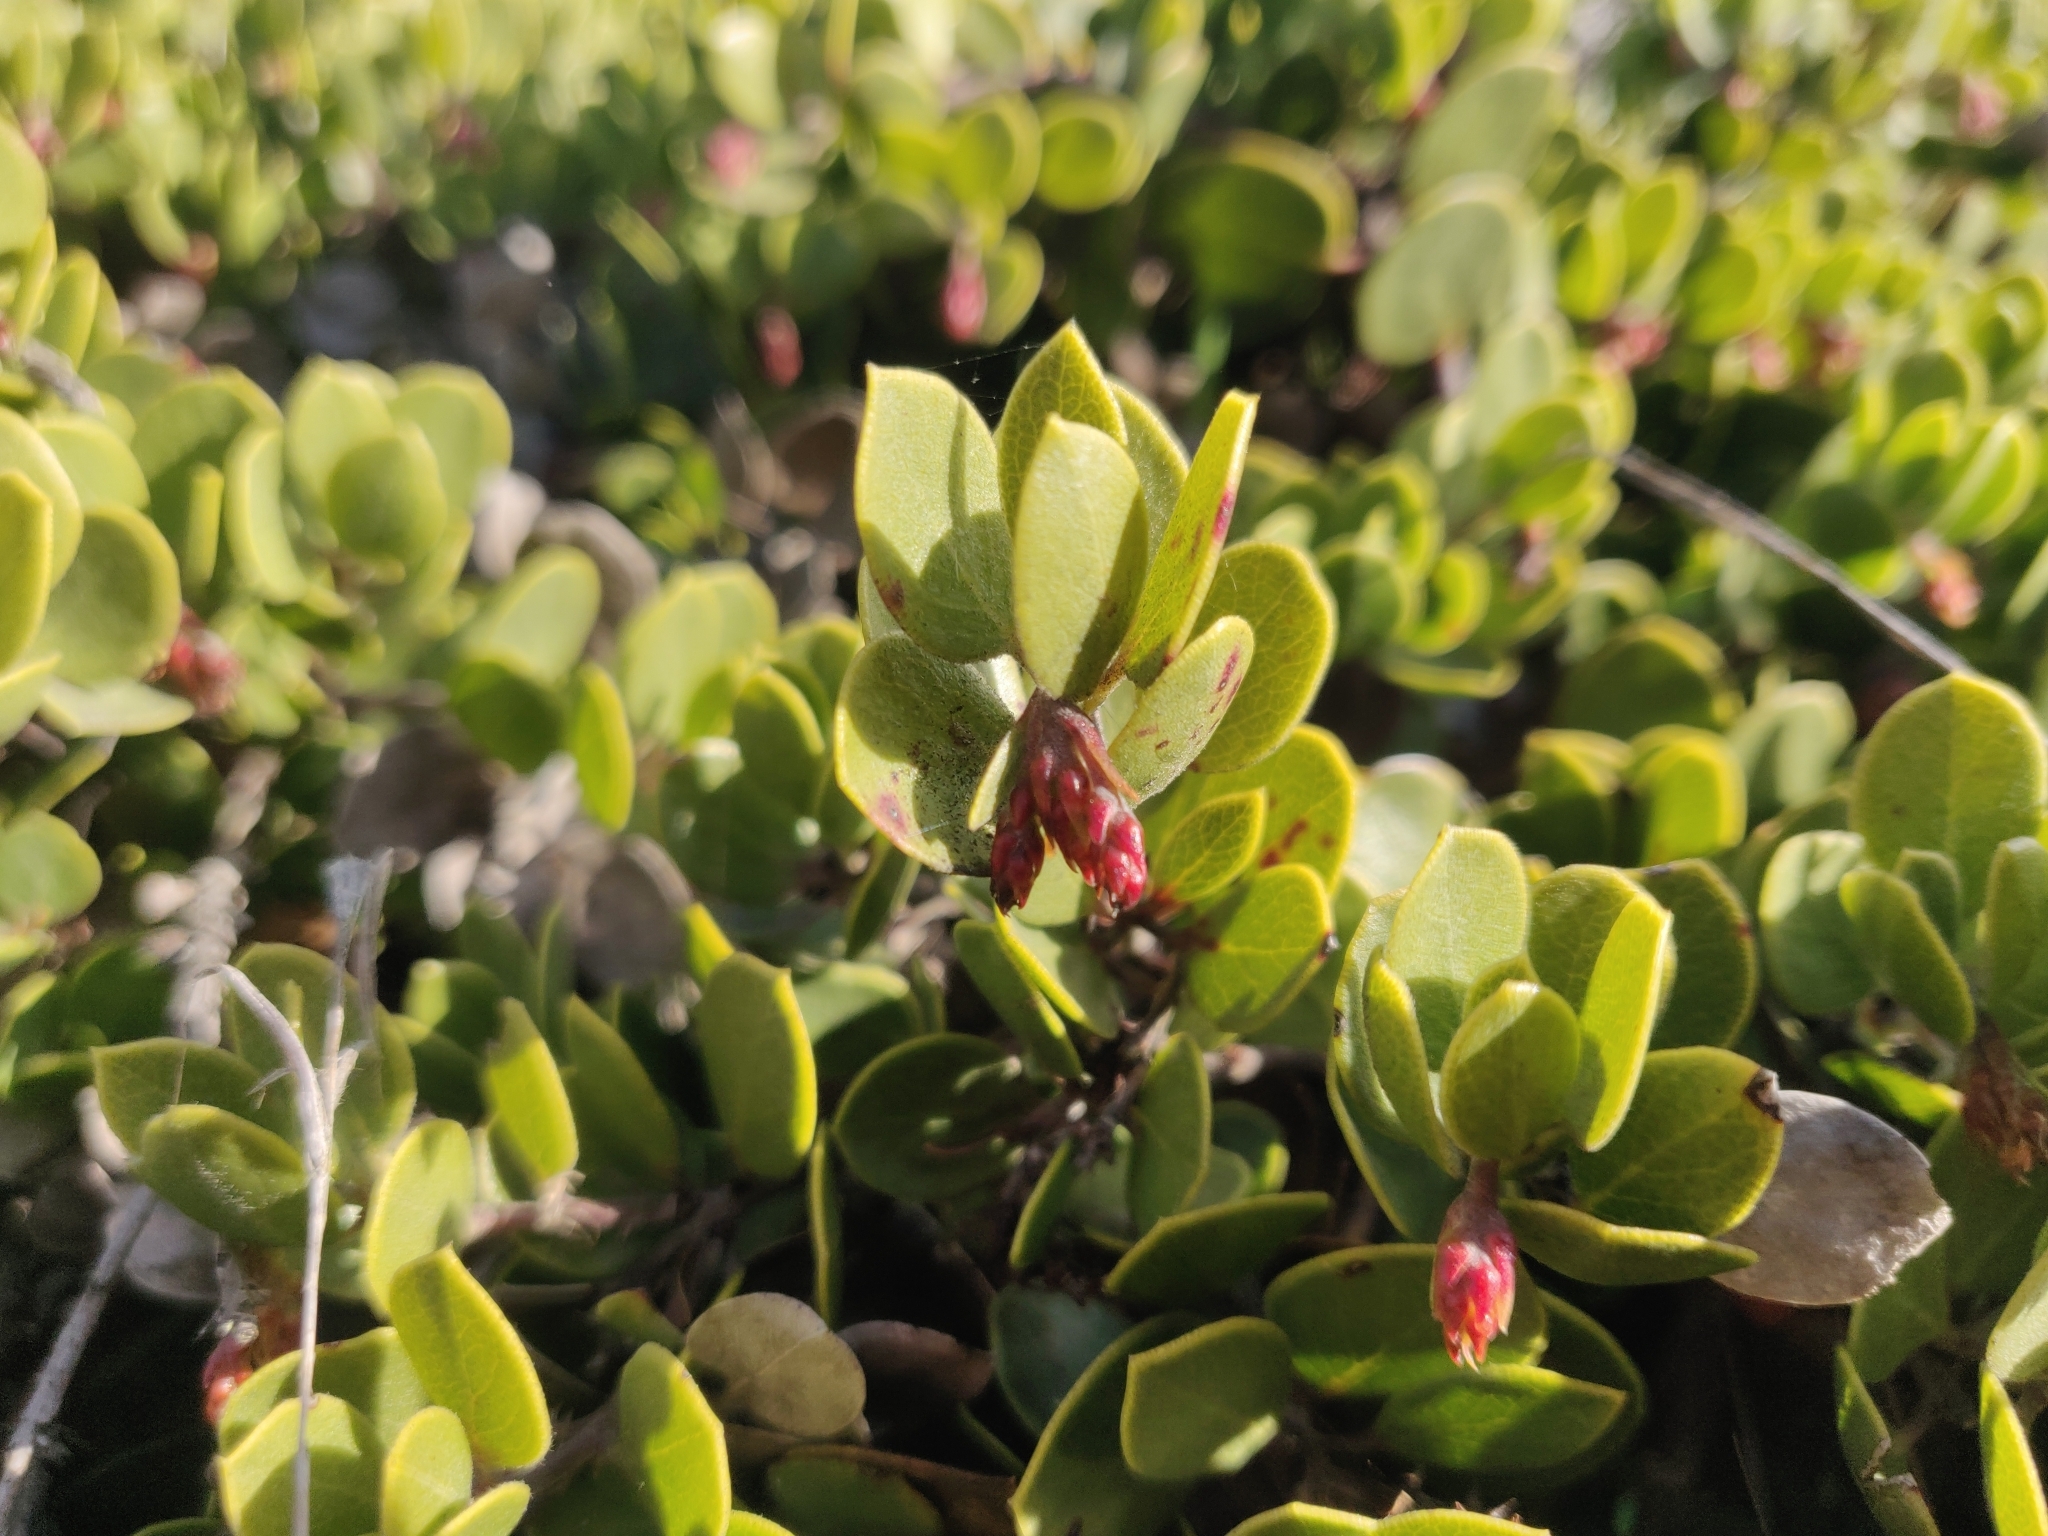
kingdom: Plantae
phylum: Tracheophyta
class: Magnoliopsida
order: Ericales
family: Ericaceae
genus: Arctostaphylos
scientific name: Arctostaphylos mewukka
